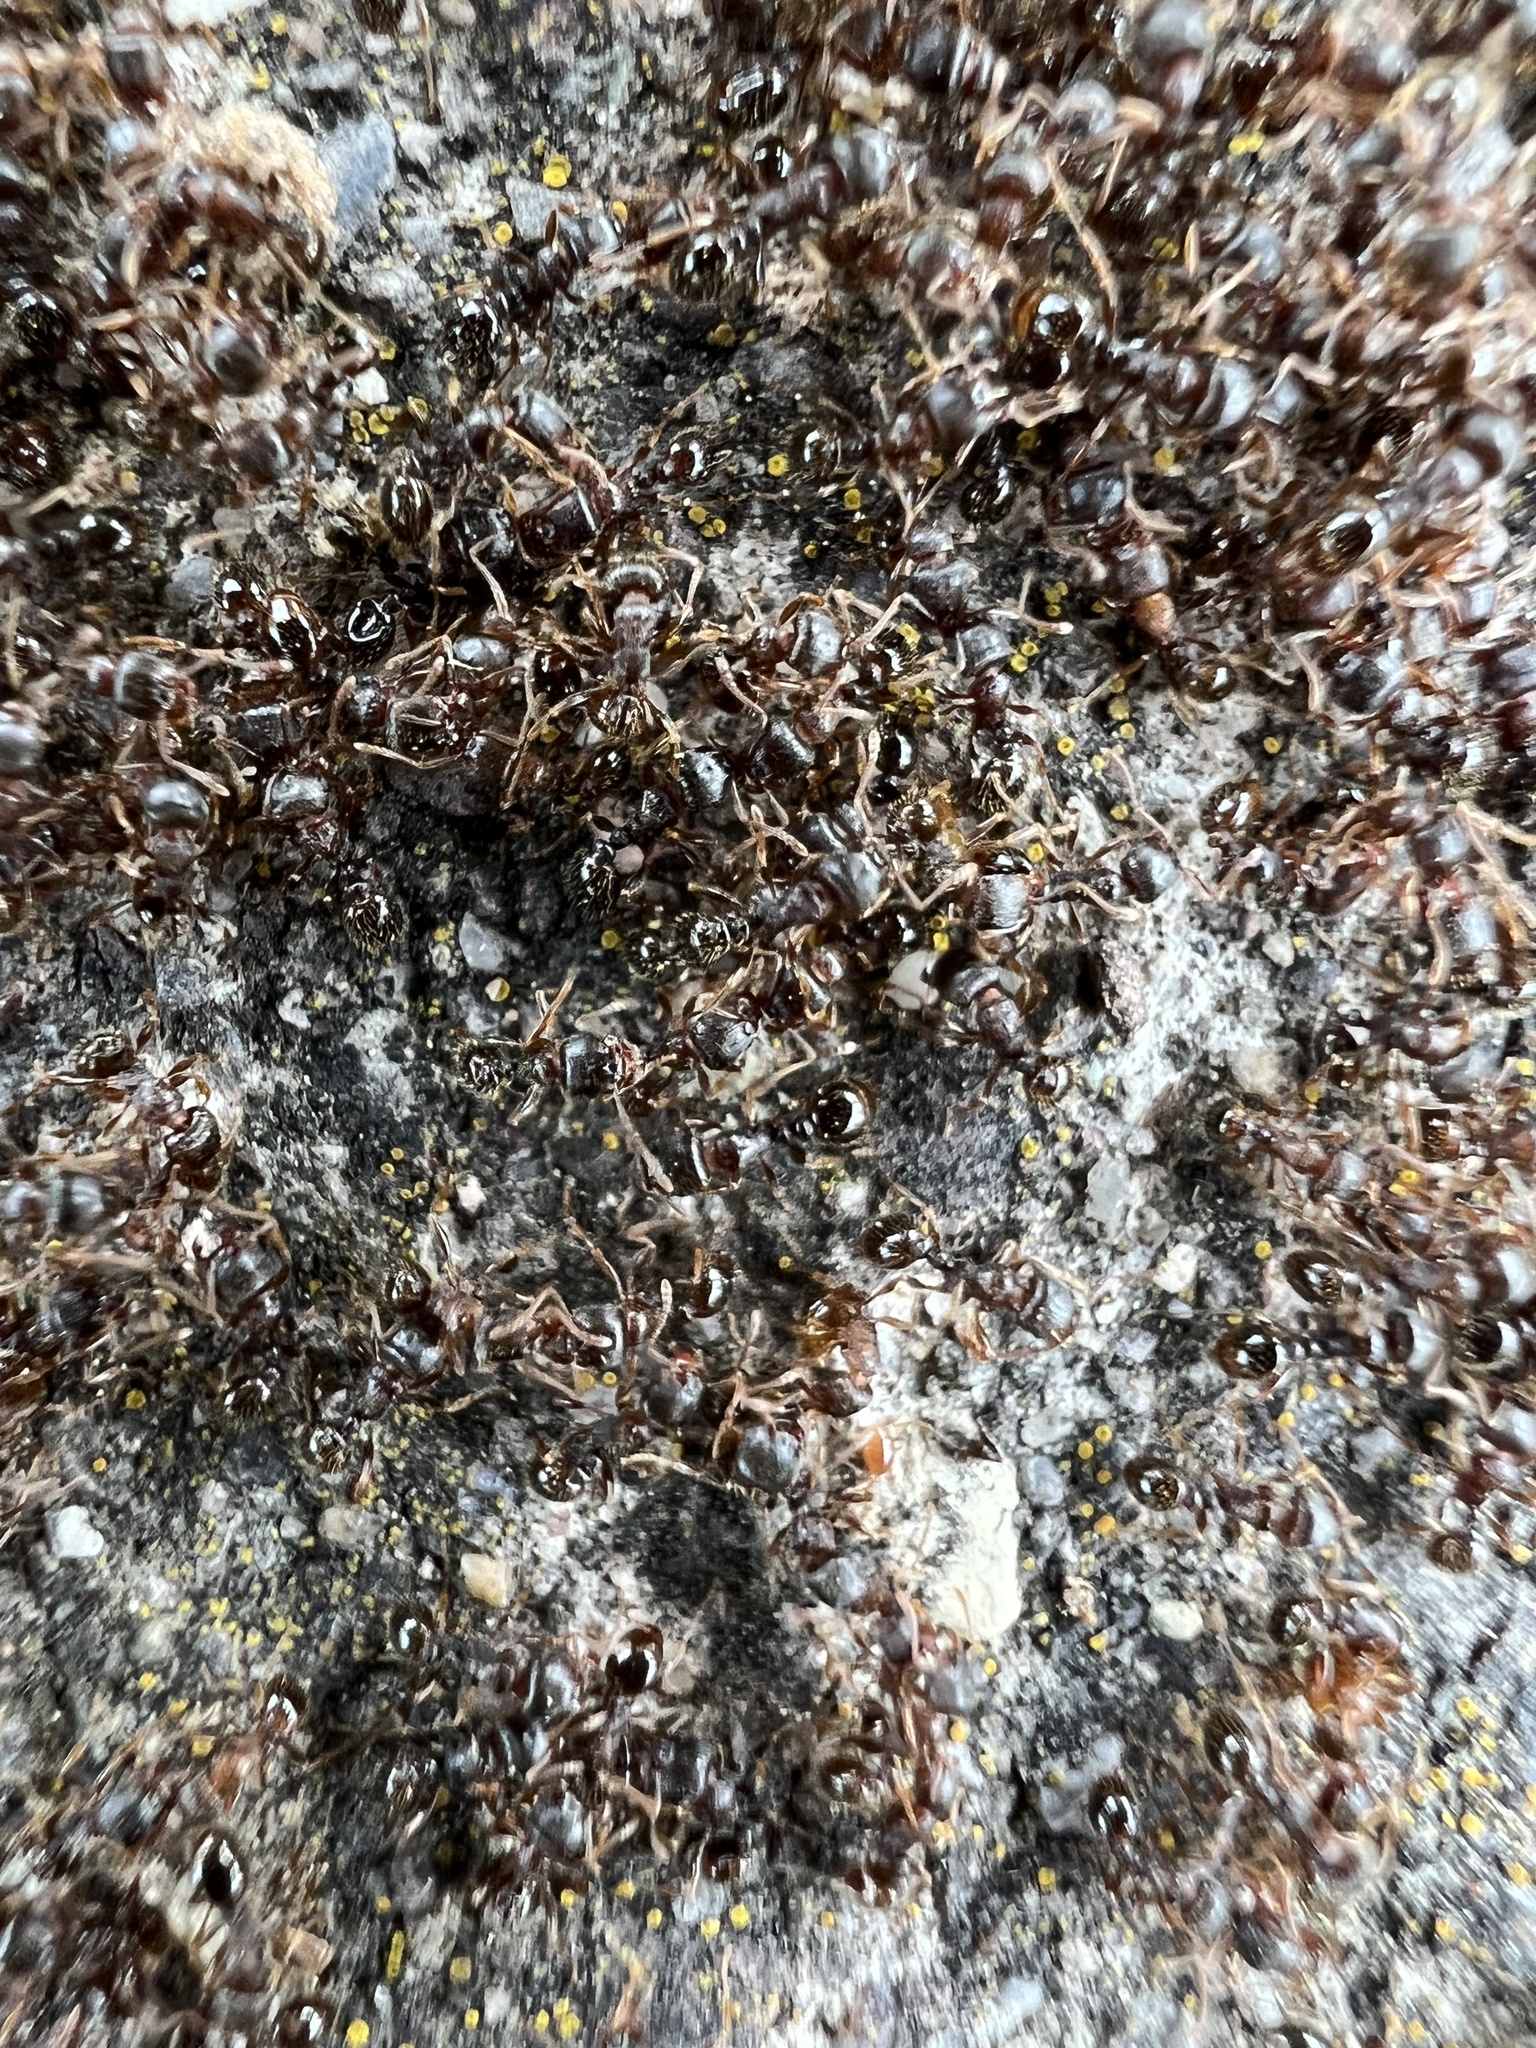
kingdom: Animalia
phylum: Arthropoda
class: Insecta
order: Hymenoptera
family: Formicidae
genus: Tetramorium
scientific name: Tetramorium immigrans
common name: Pavement ant
